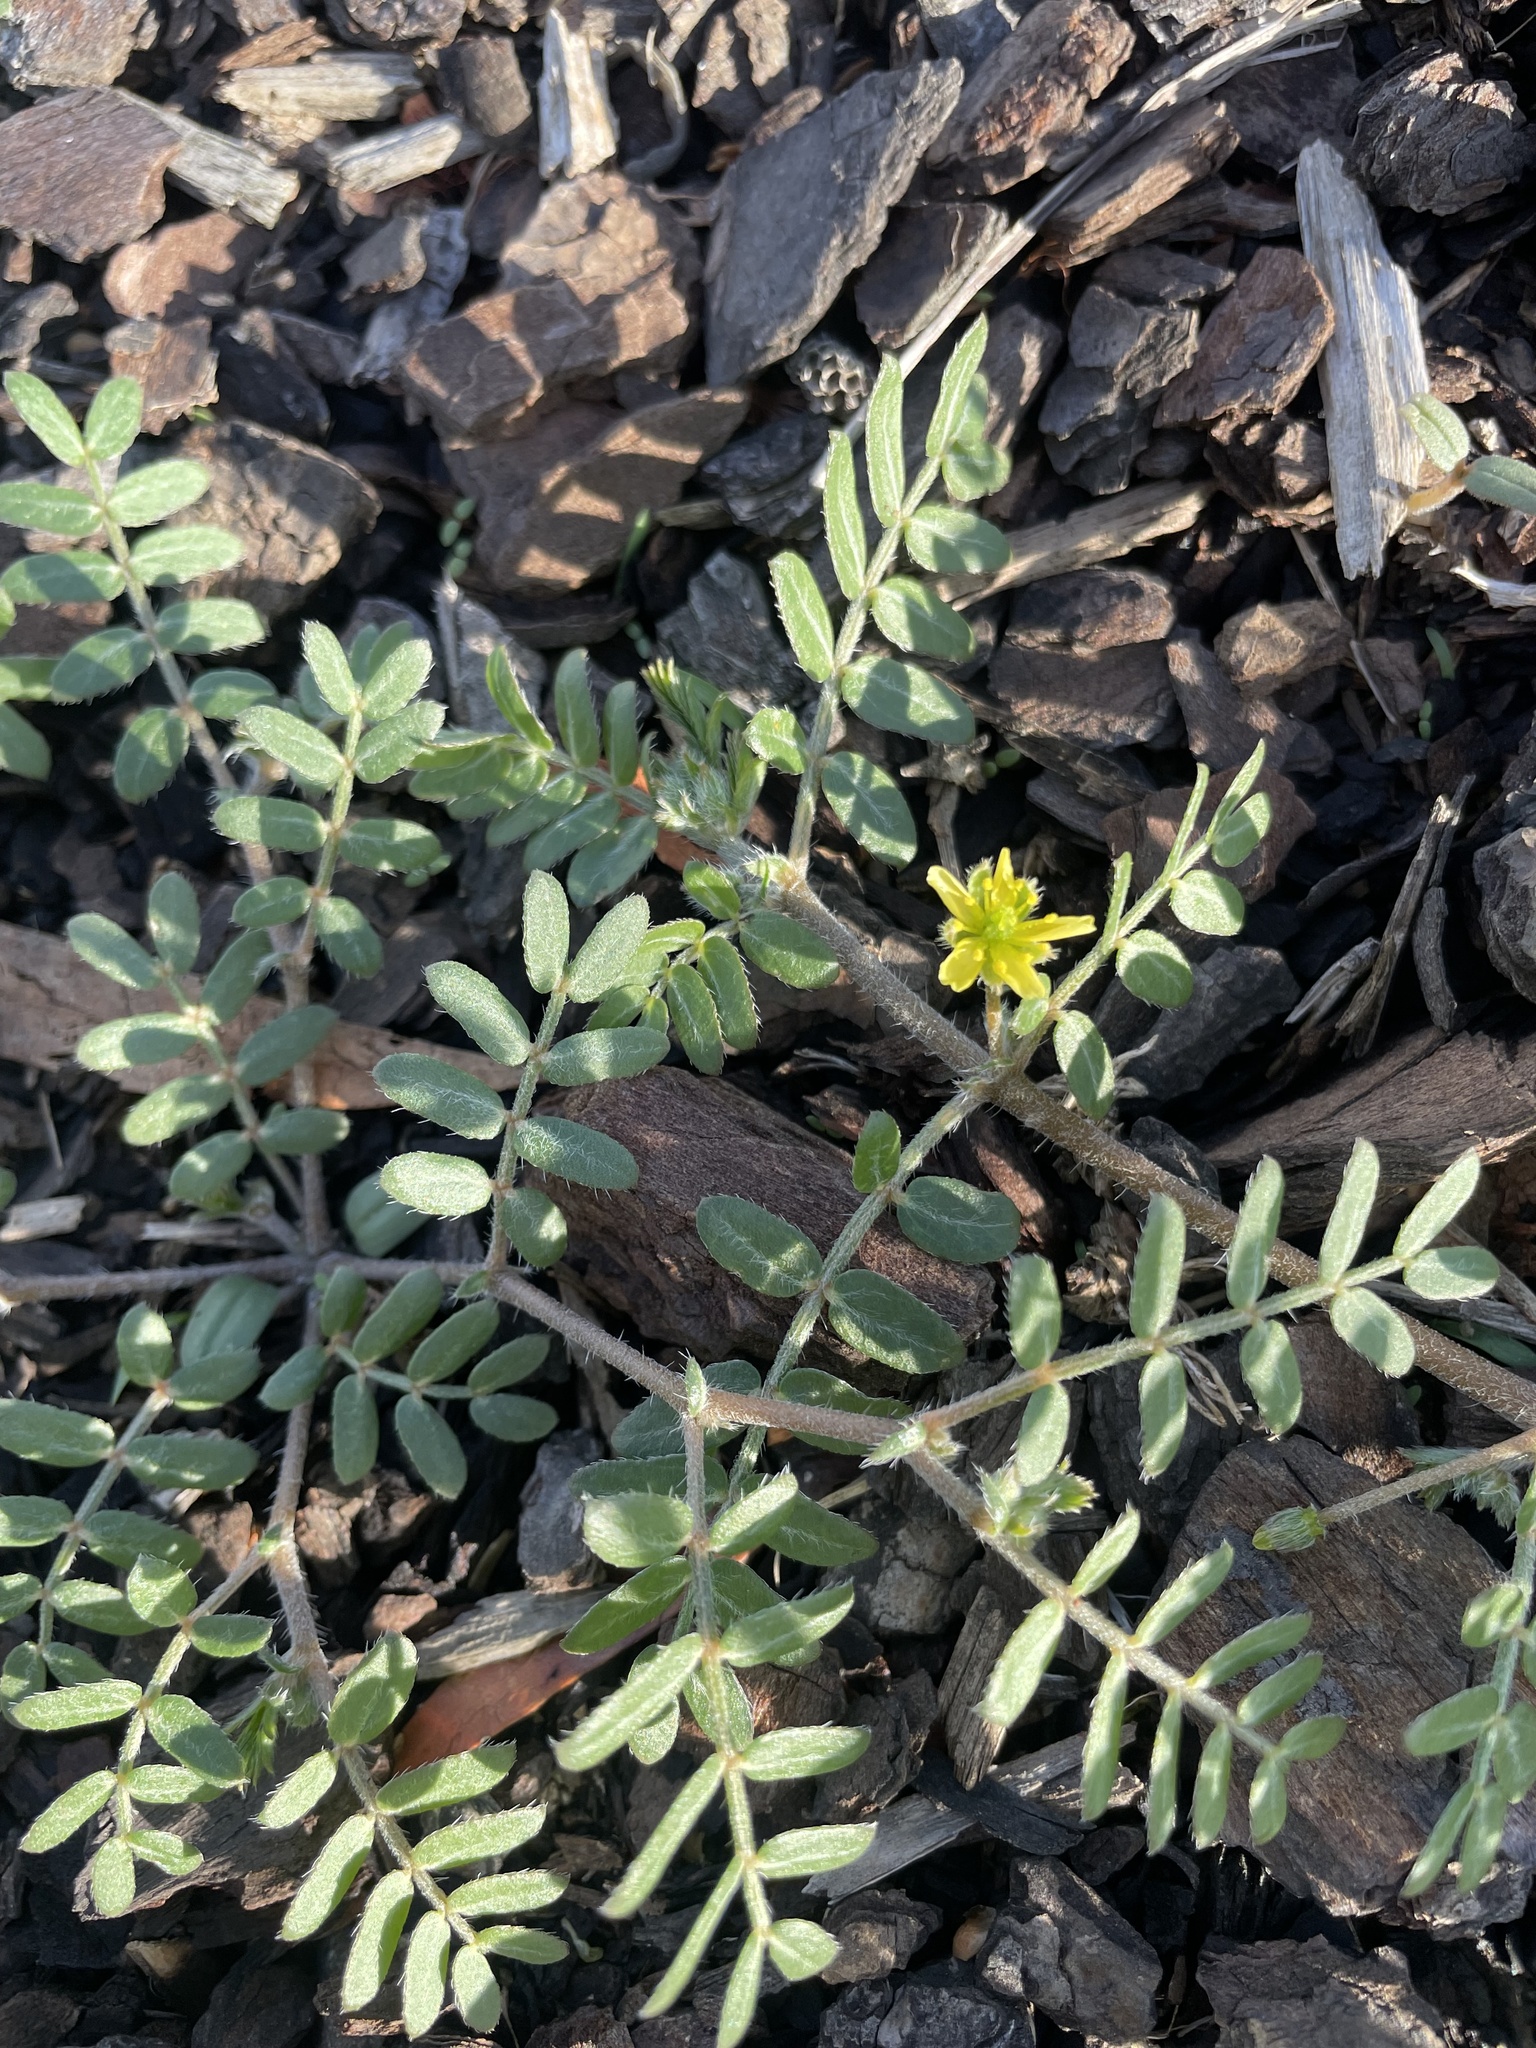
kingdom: Plantae
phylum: Tracheophyta
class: Magnoliopsida
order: Zygophyllales
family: Zygophyllaceae
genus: Tribulus
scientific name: Tribulus terrestris
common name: Puncturevine
